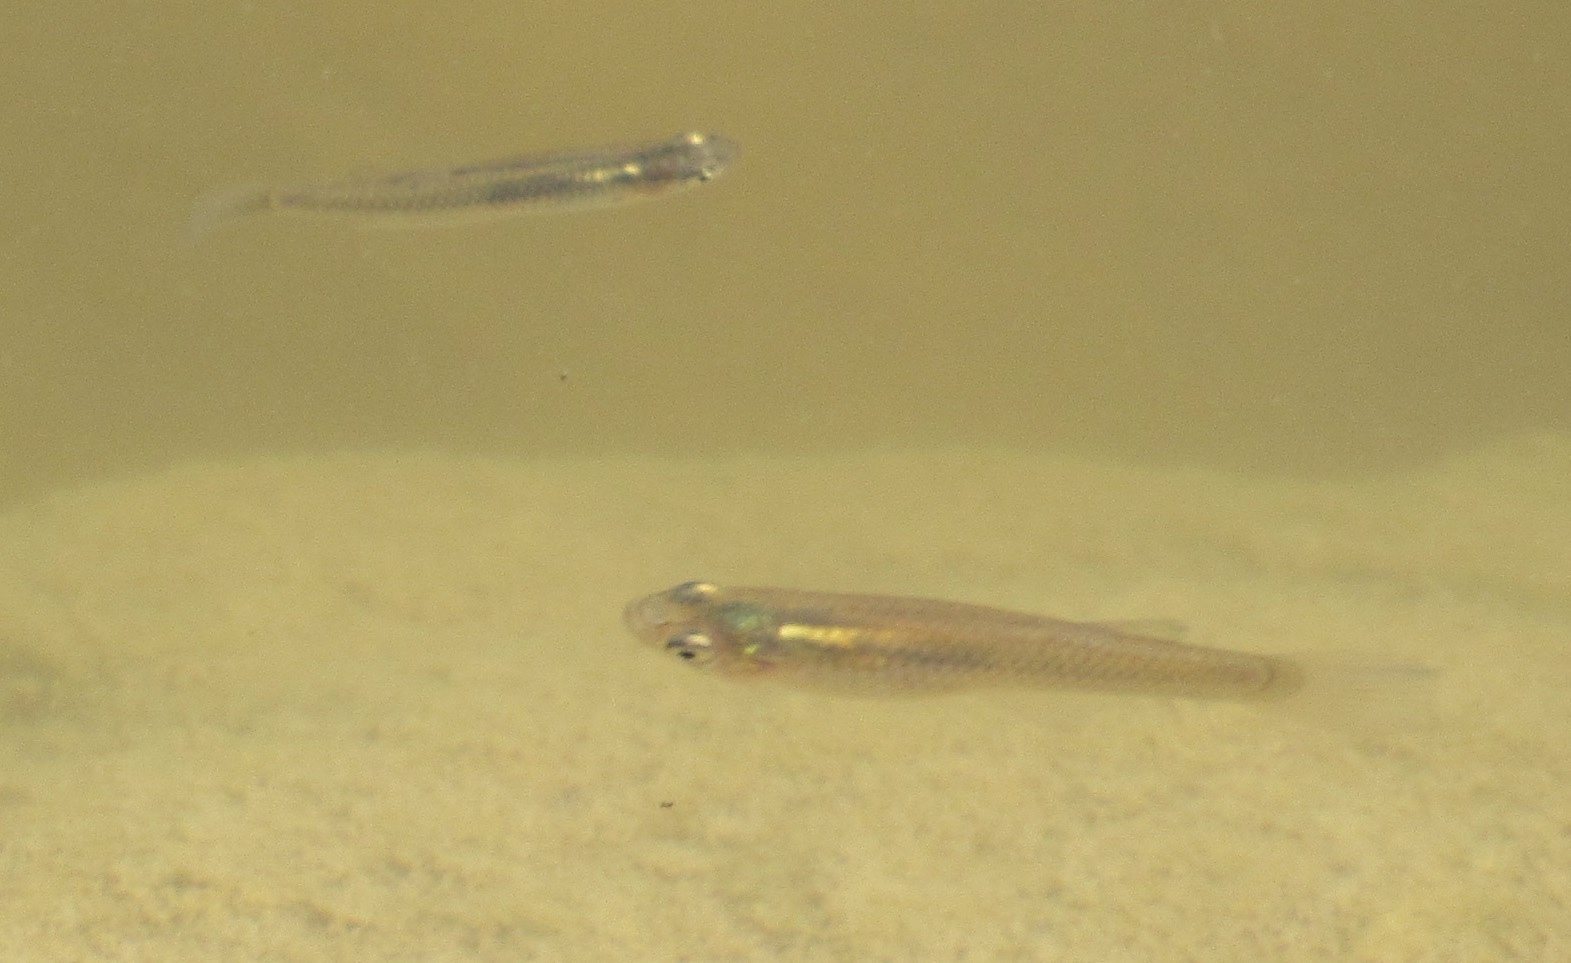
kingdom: Animalia
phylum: Chordata
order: Cyprinodontiformes
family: Poeciliidae
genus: Gambusia
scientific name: Gambusia affinis
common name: Mosquitofish
